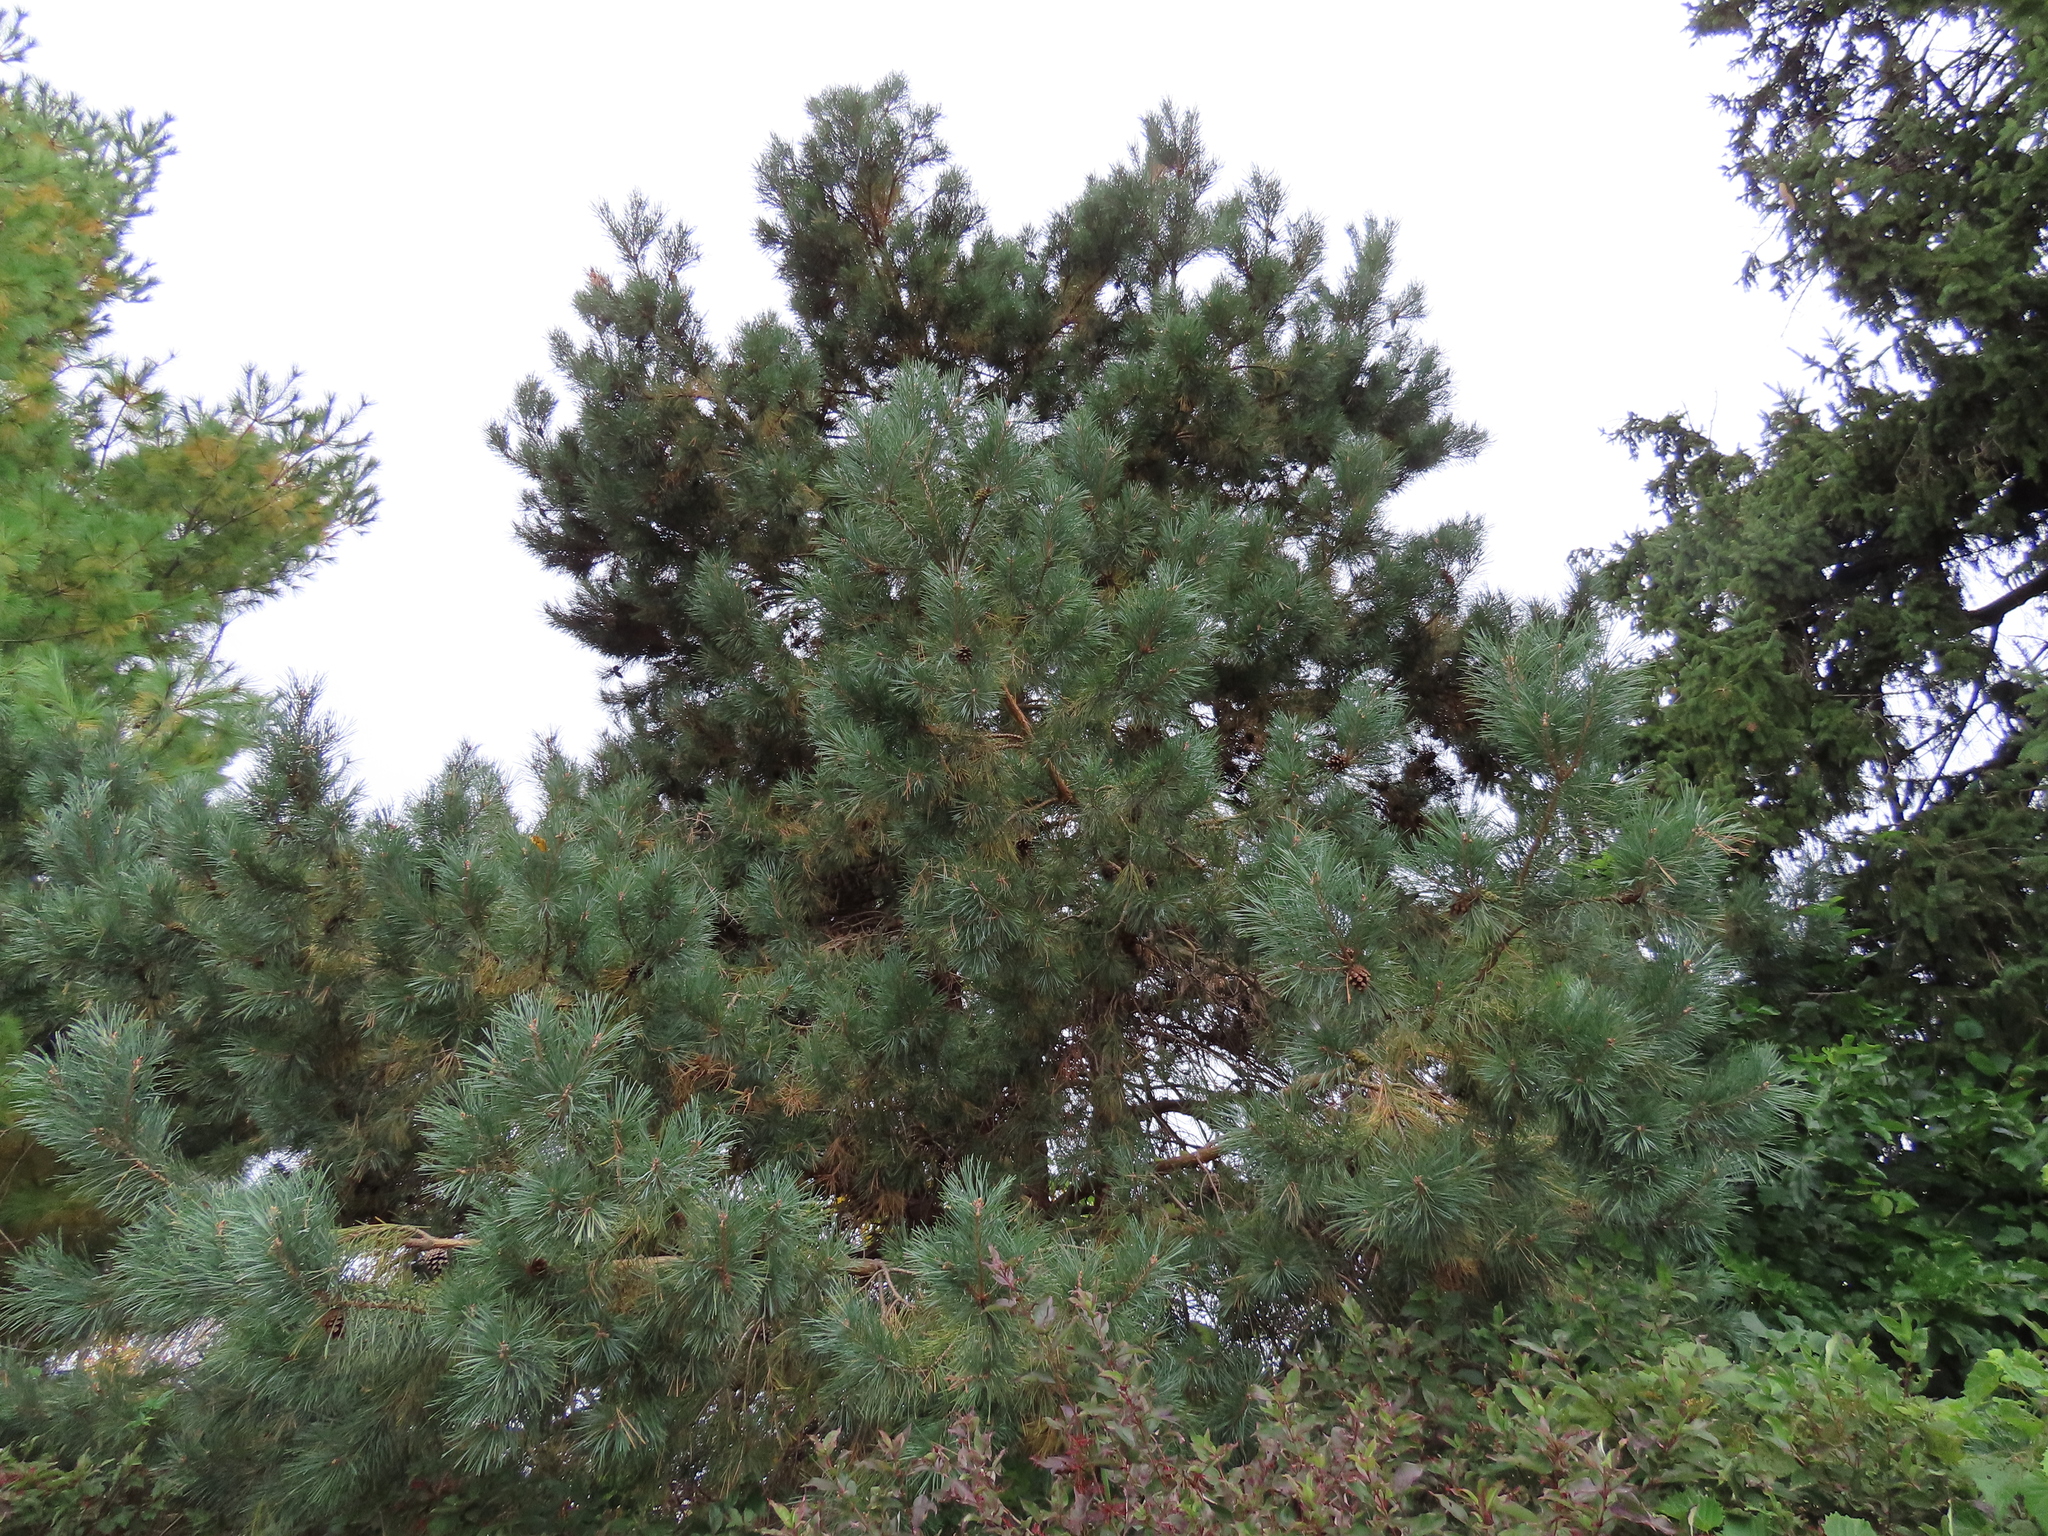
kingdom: Plantae
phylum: Tracheophyta
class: Pinopsida
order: Pinales
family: Pinaceae
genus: Pinus
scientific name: Pinus sylvestris
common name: Scots pine
